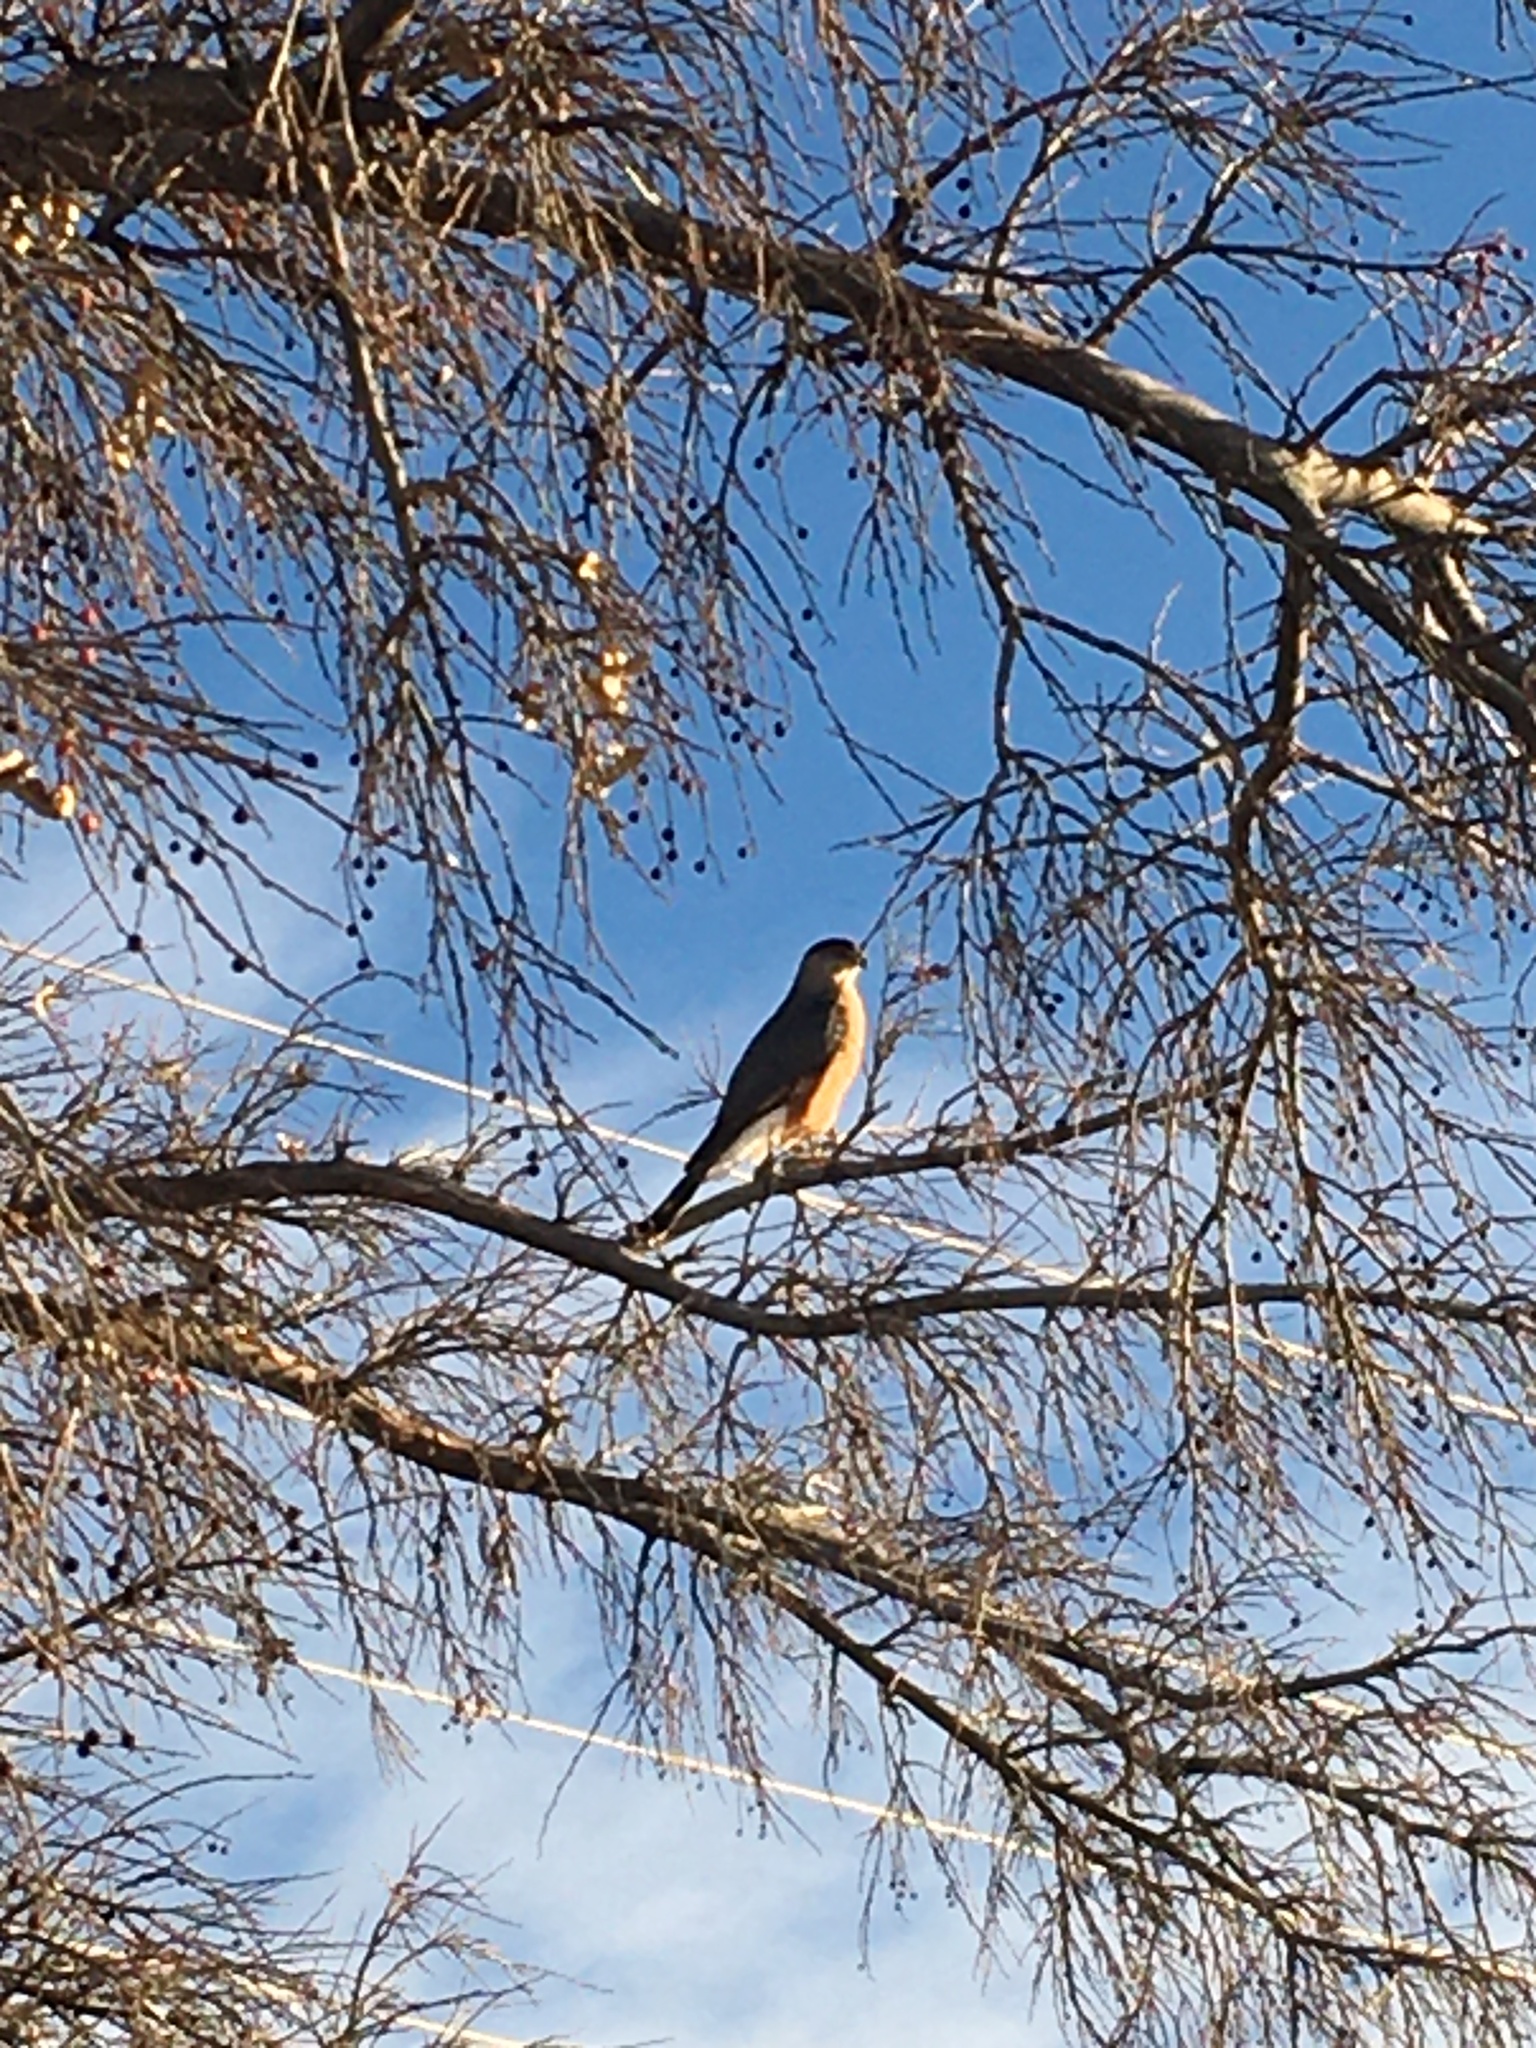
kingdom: Animalia
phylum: Chordata
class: Aves
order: Accipitriformes
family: Accipitridae
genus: Accipiter
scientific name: Accipiter cooperii
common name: Cooper's hawk
